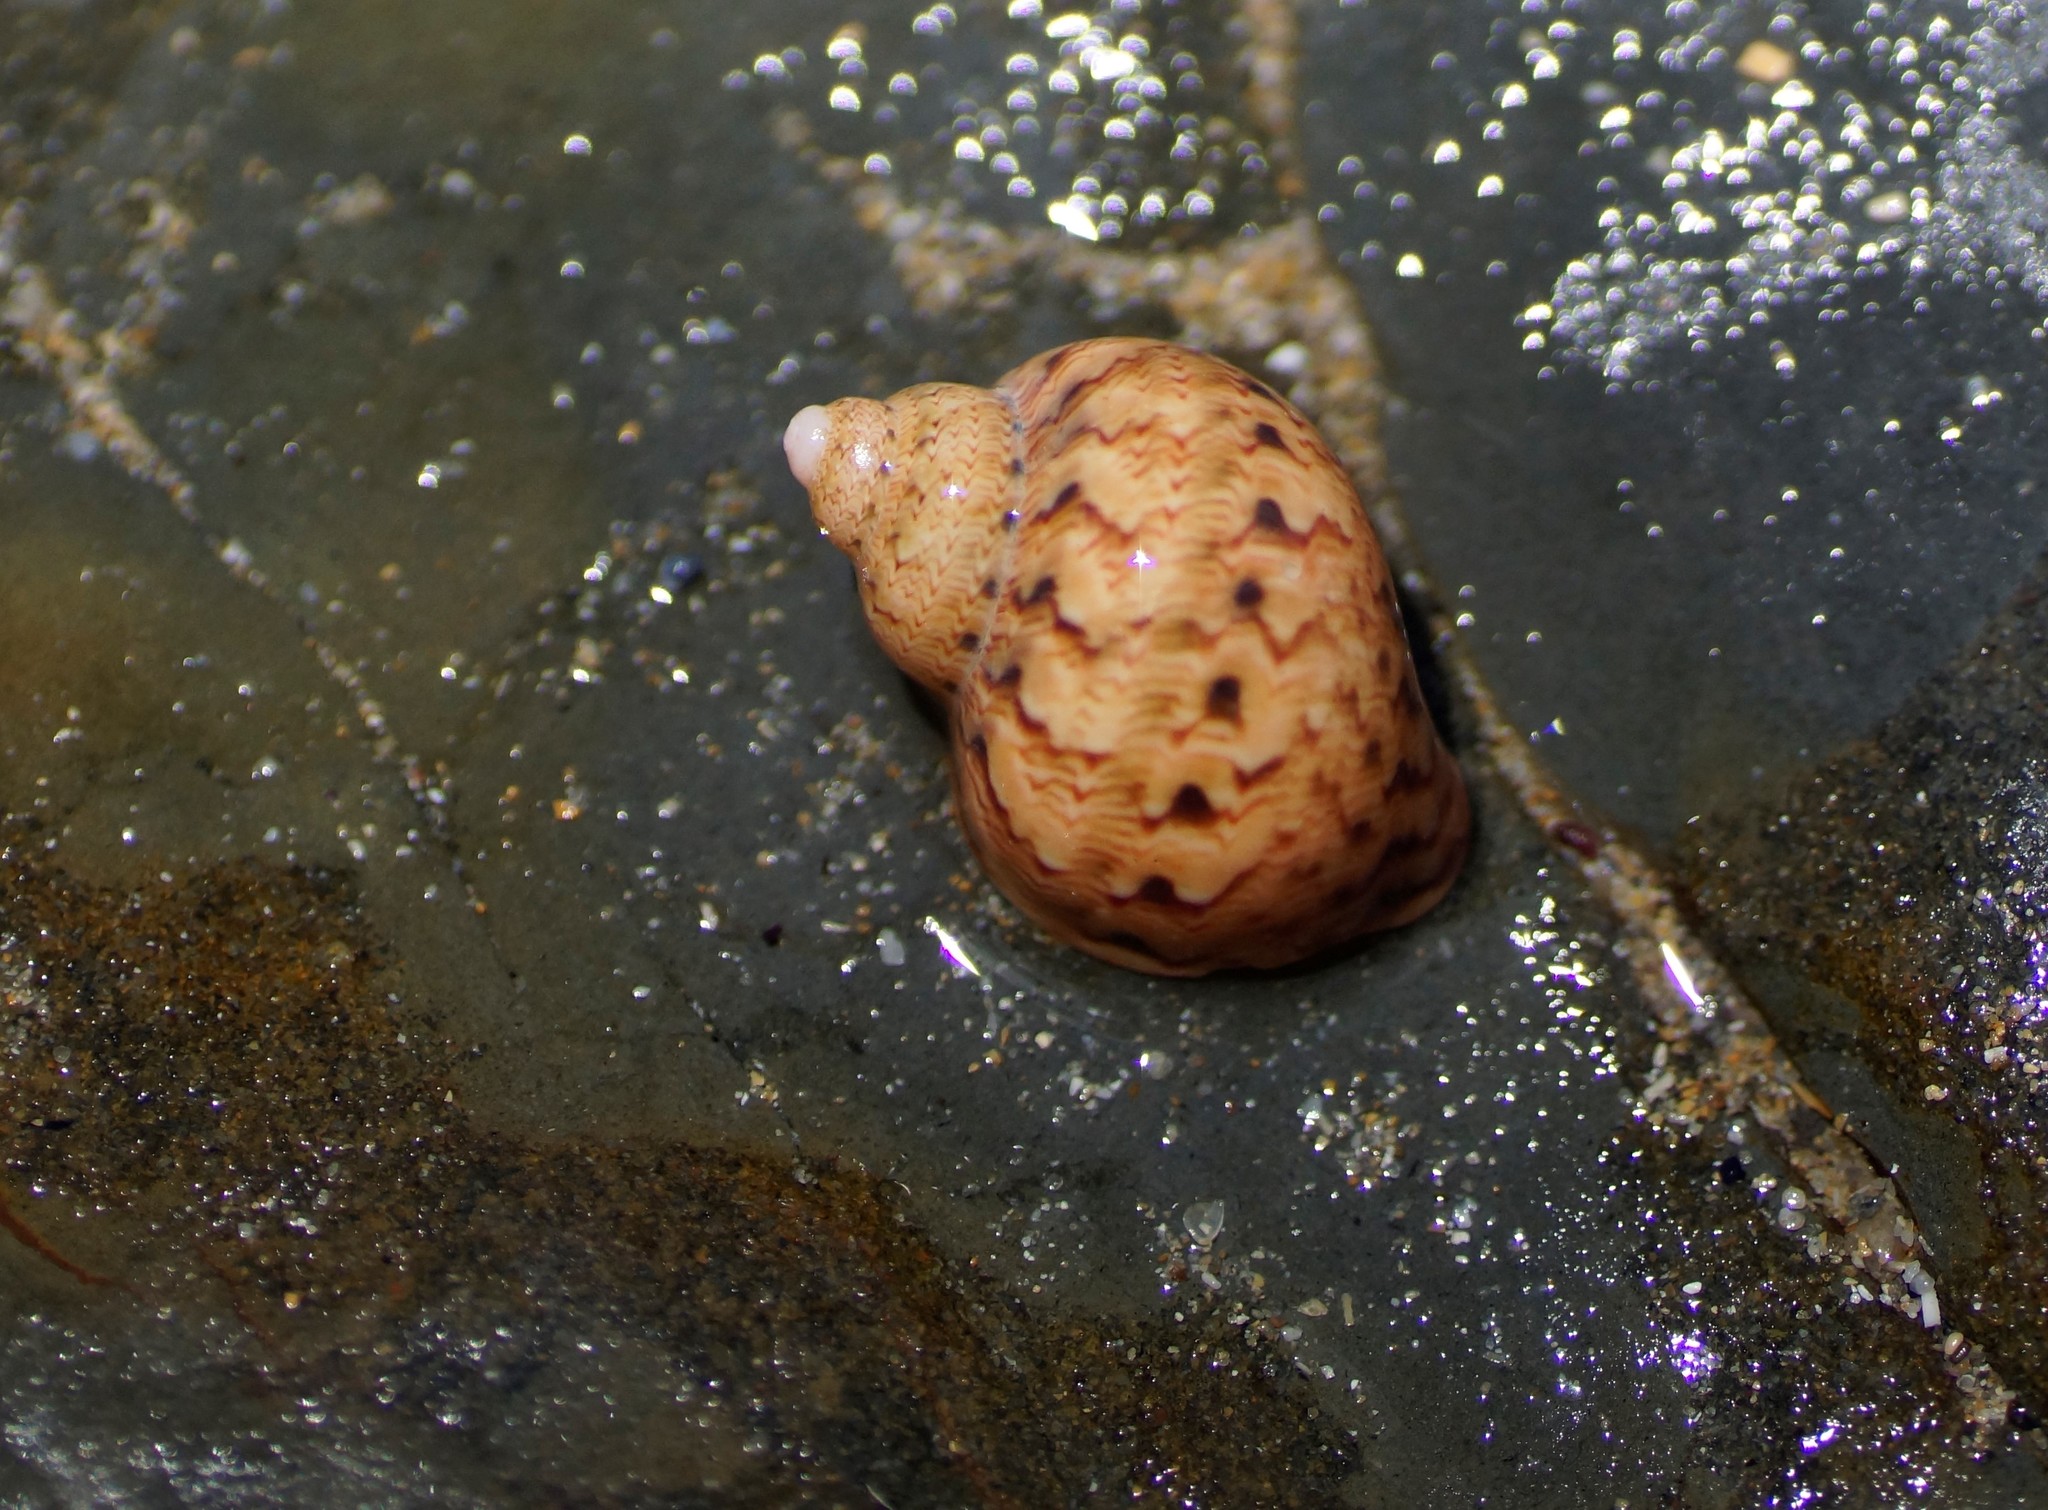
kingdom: Animalia
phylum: Mollusca
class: Gastropoda
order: Trochida
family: Phasianellidae
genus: Phasianella
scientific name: Phasianella ventricosa
